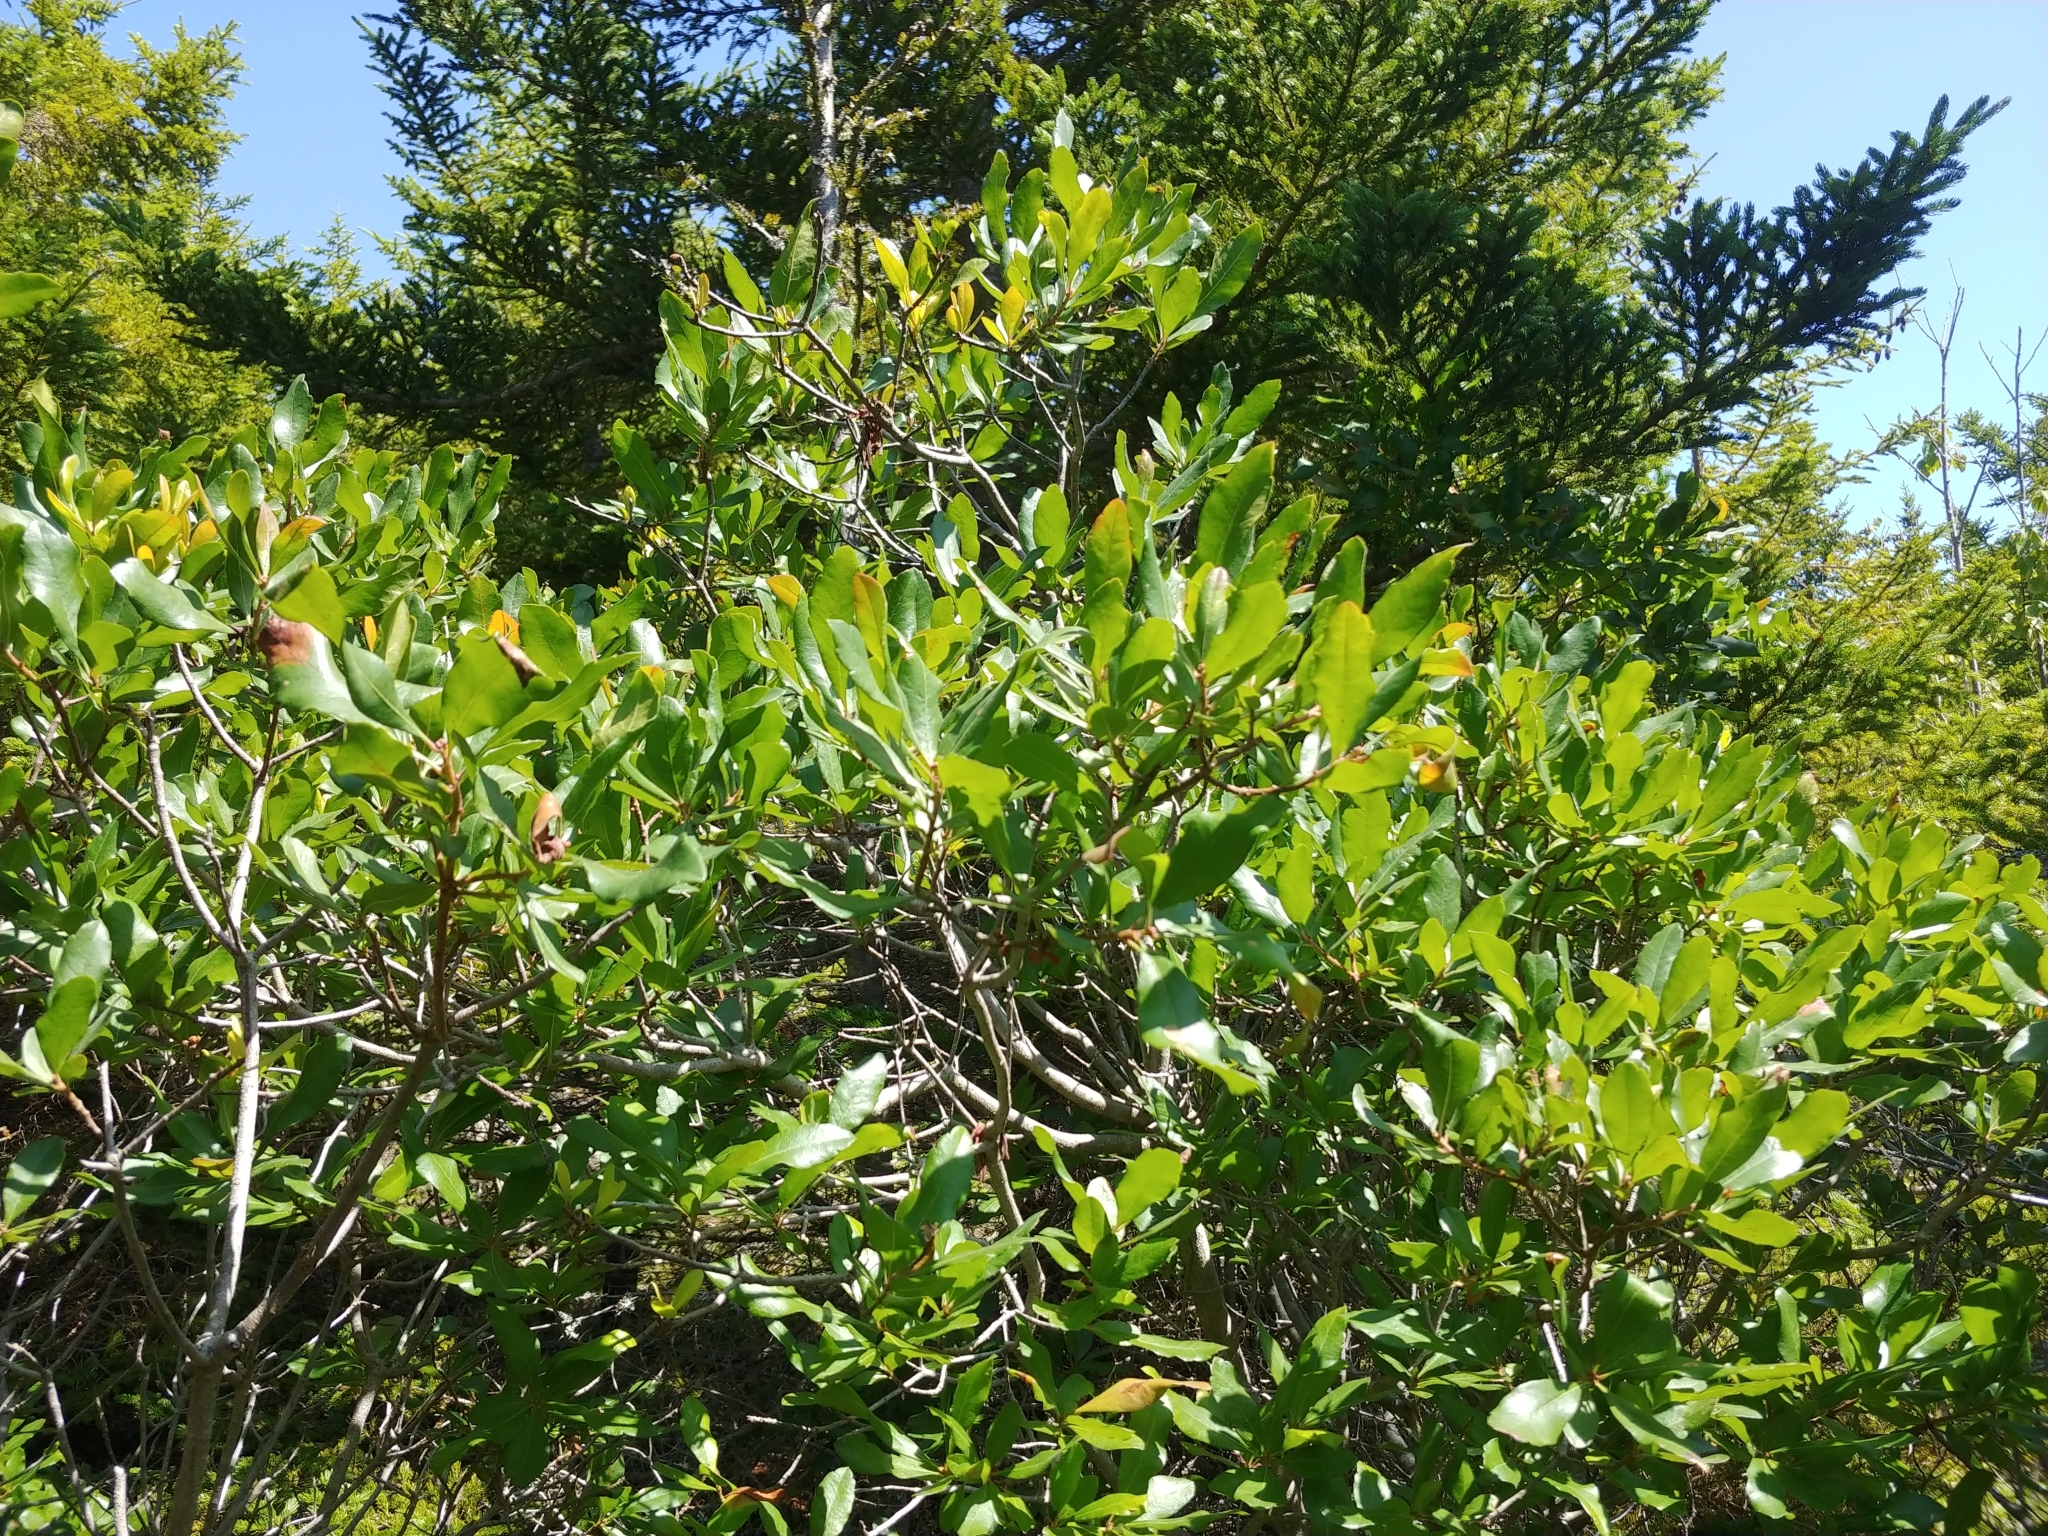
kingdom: Plantae
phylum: Tracheophyta
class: Magnoliopsida
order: Fagales
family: Myricaceae
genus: Morella
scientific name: Morella pensylvanica
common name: Northern bayberry
